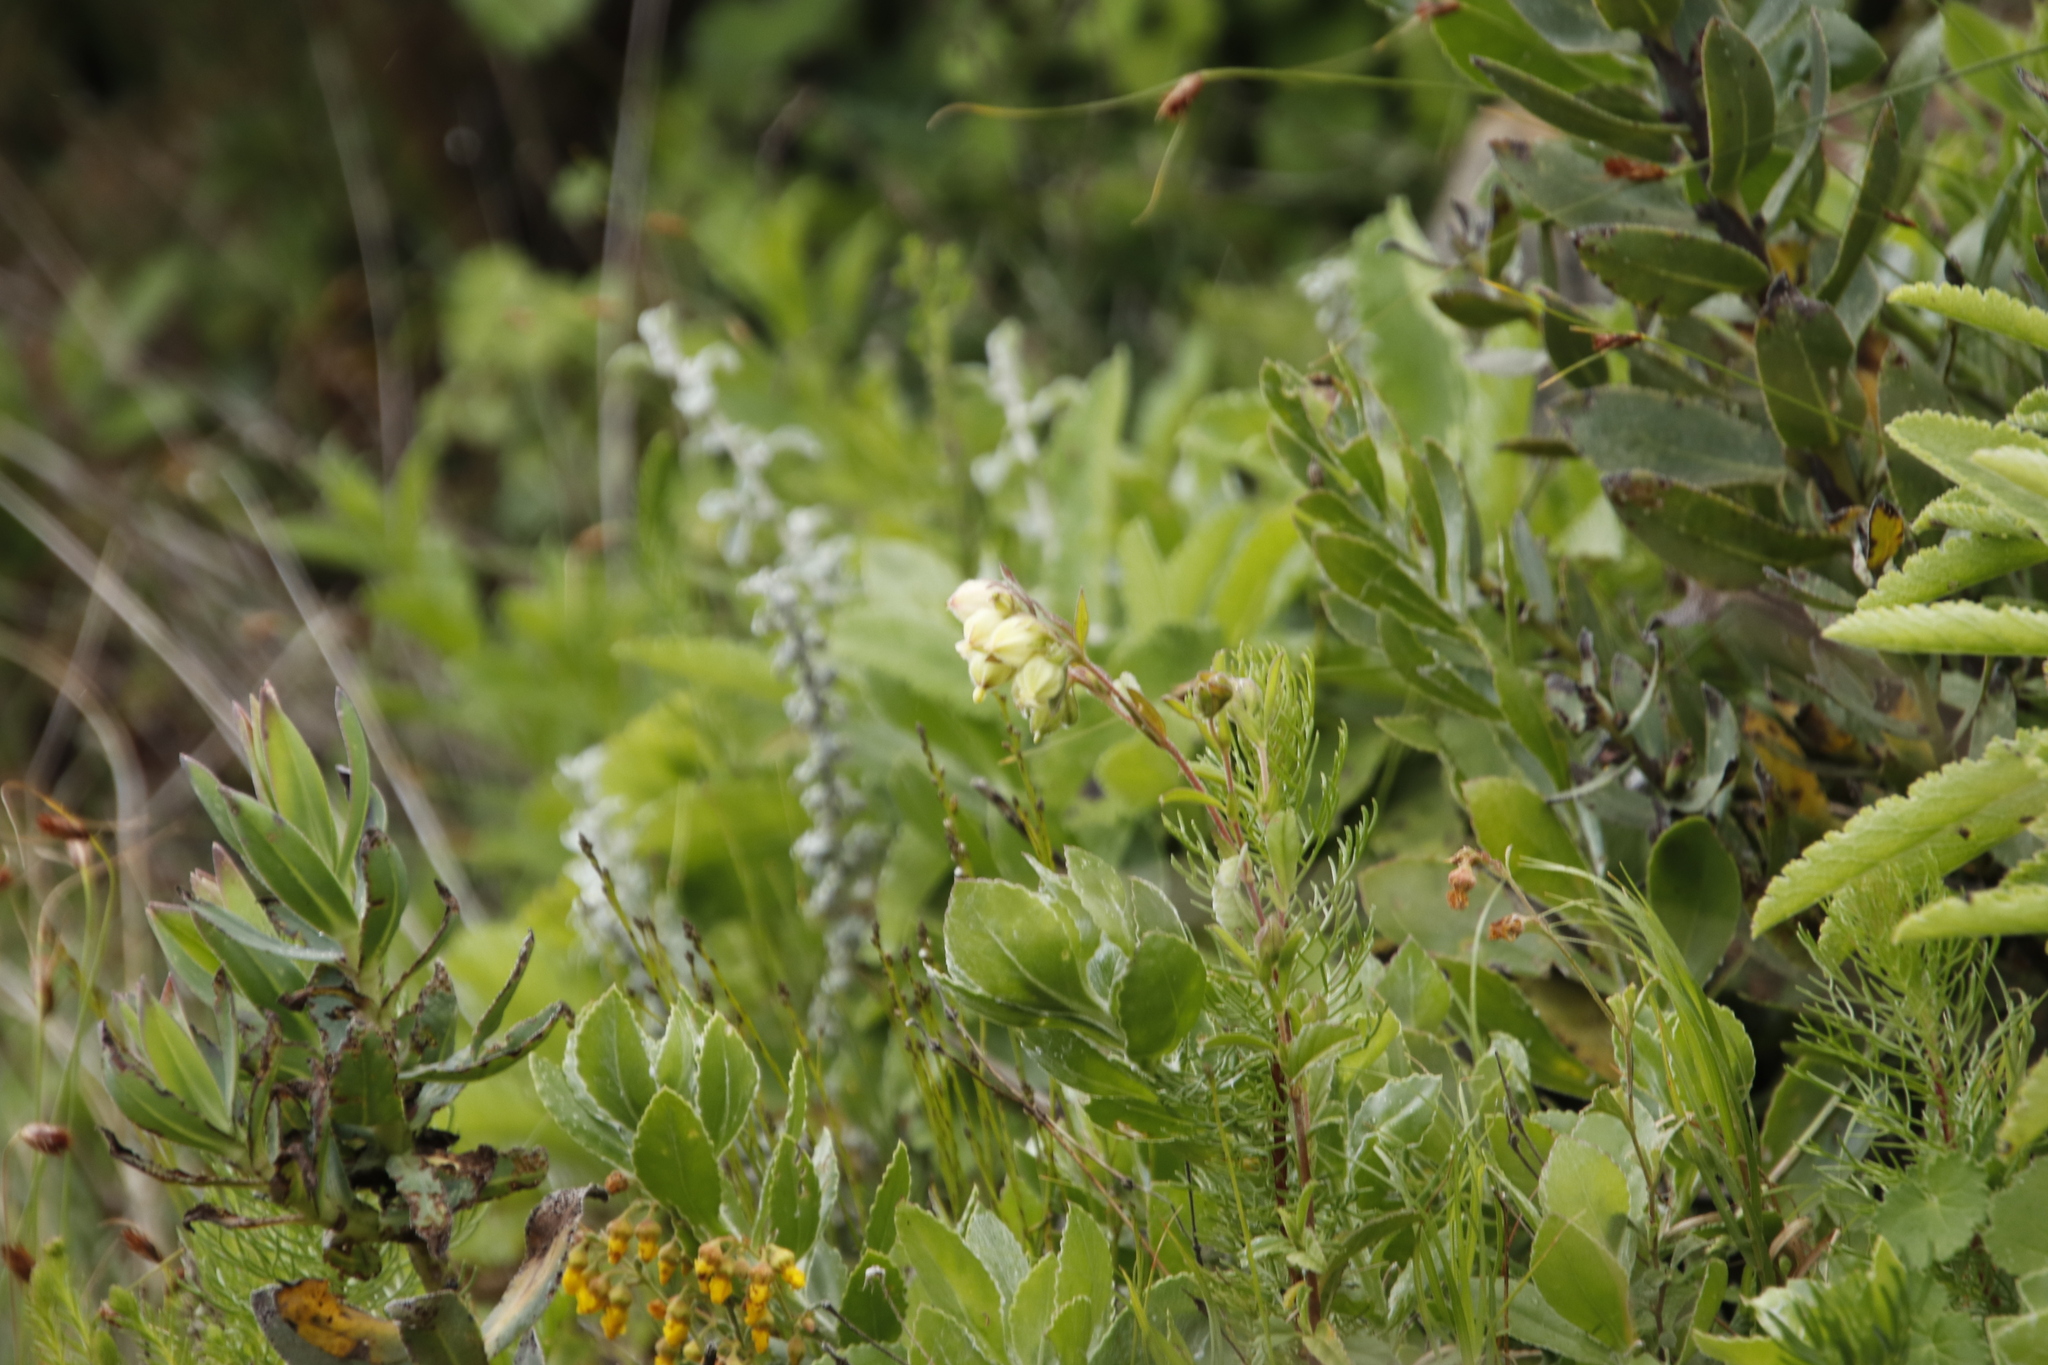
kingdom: Plantae
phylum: Tracheophyta
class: Magnoliopsida
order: Malvales
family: Malvaceae
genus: Hermannia
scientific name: Hermannia hyssopifolia
